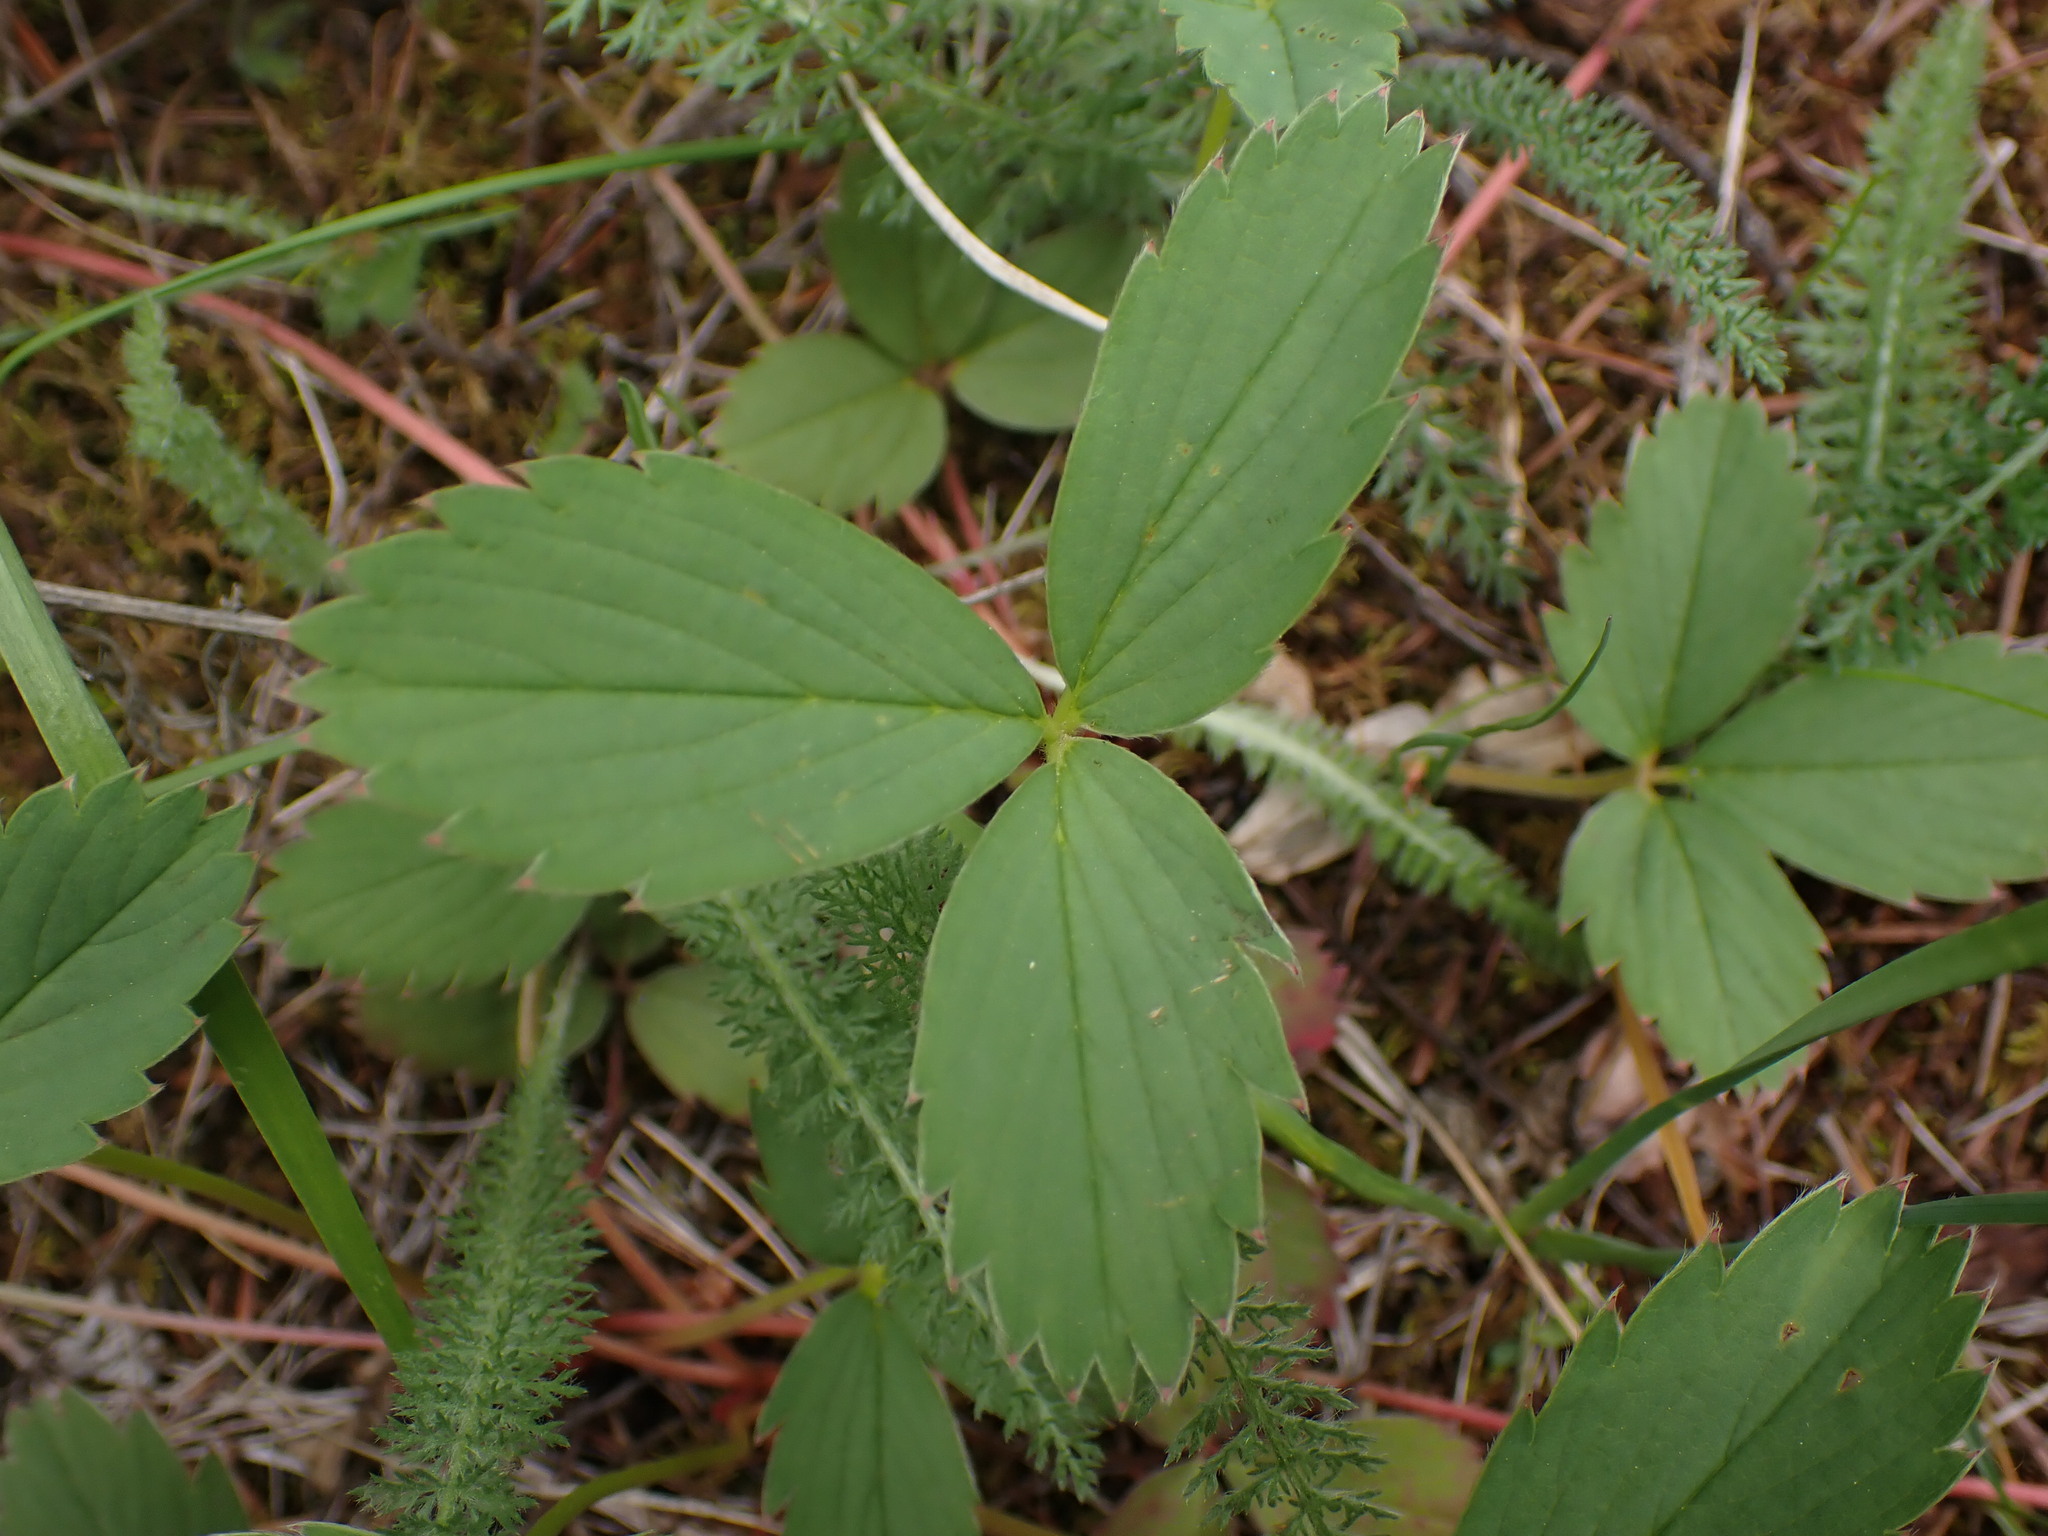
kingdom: Plantae
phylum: Tracheophyta
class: Magnoliopsida
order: Rosales
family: Rosaceae
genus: Fragaria
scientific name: Fragaria virginiana
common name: Thickleaved wild strawberry
